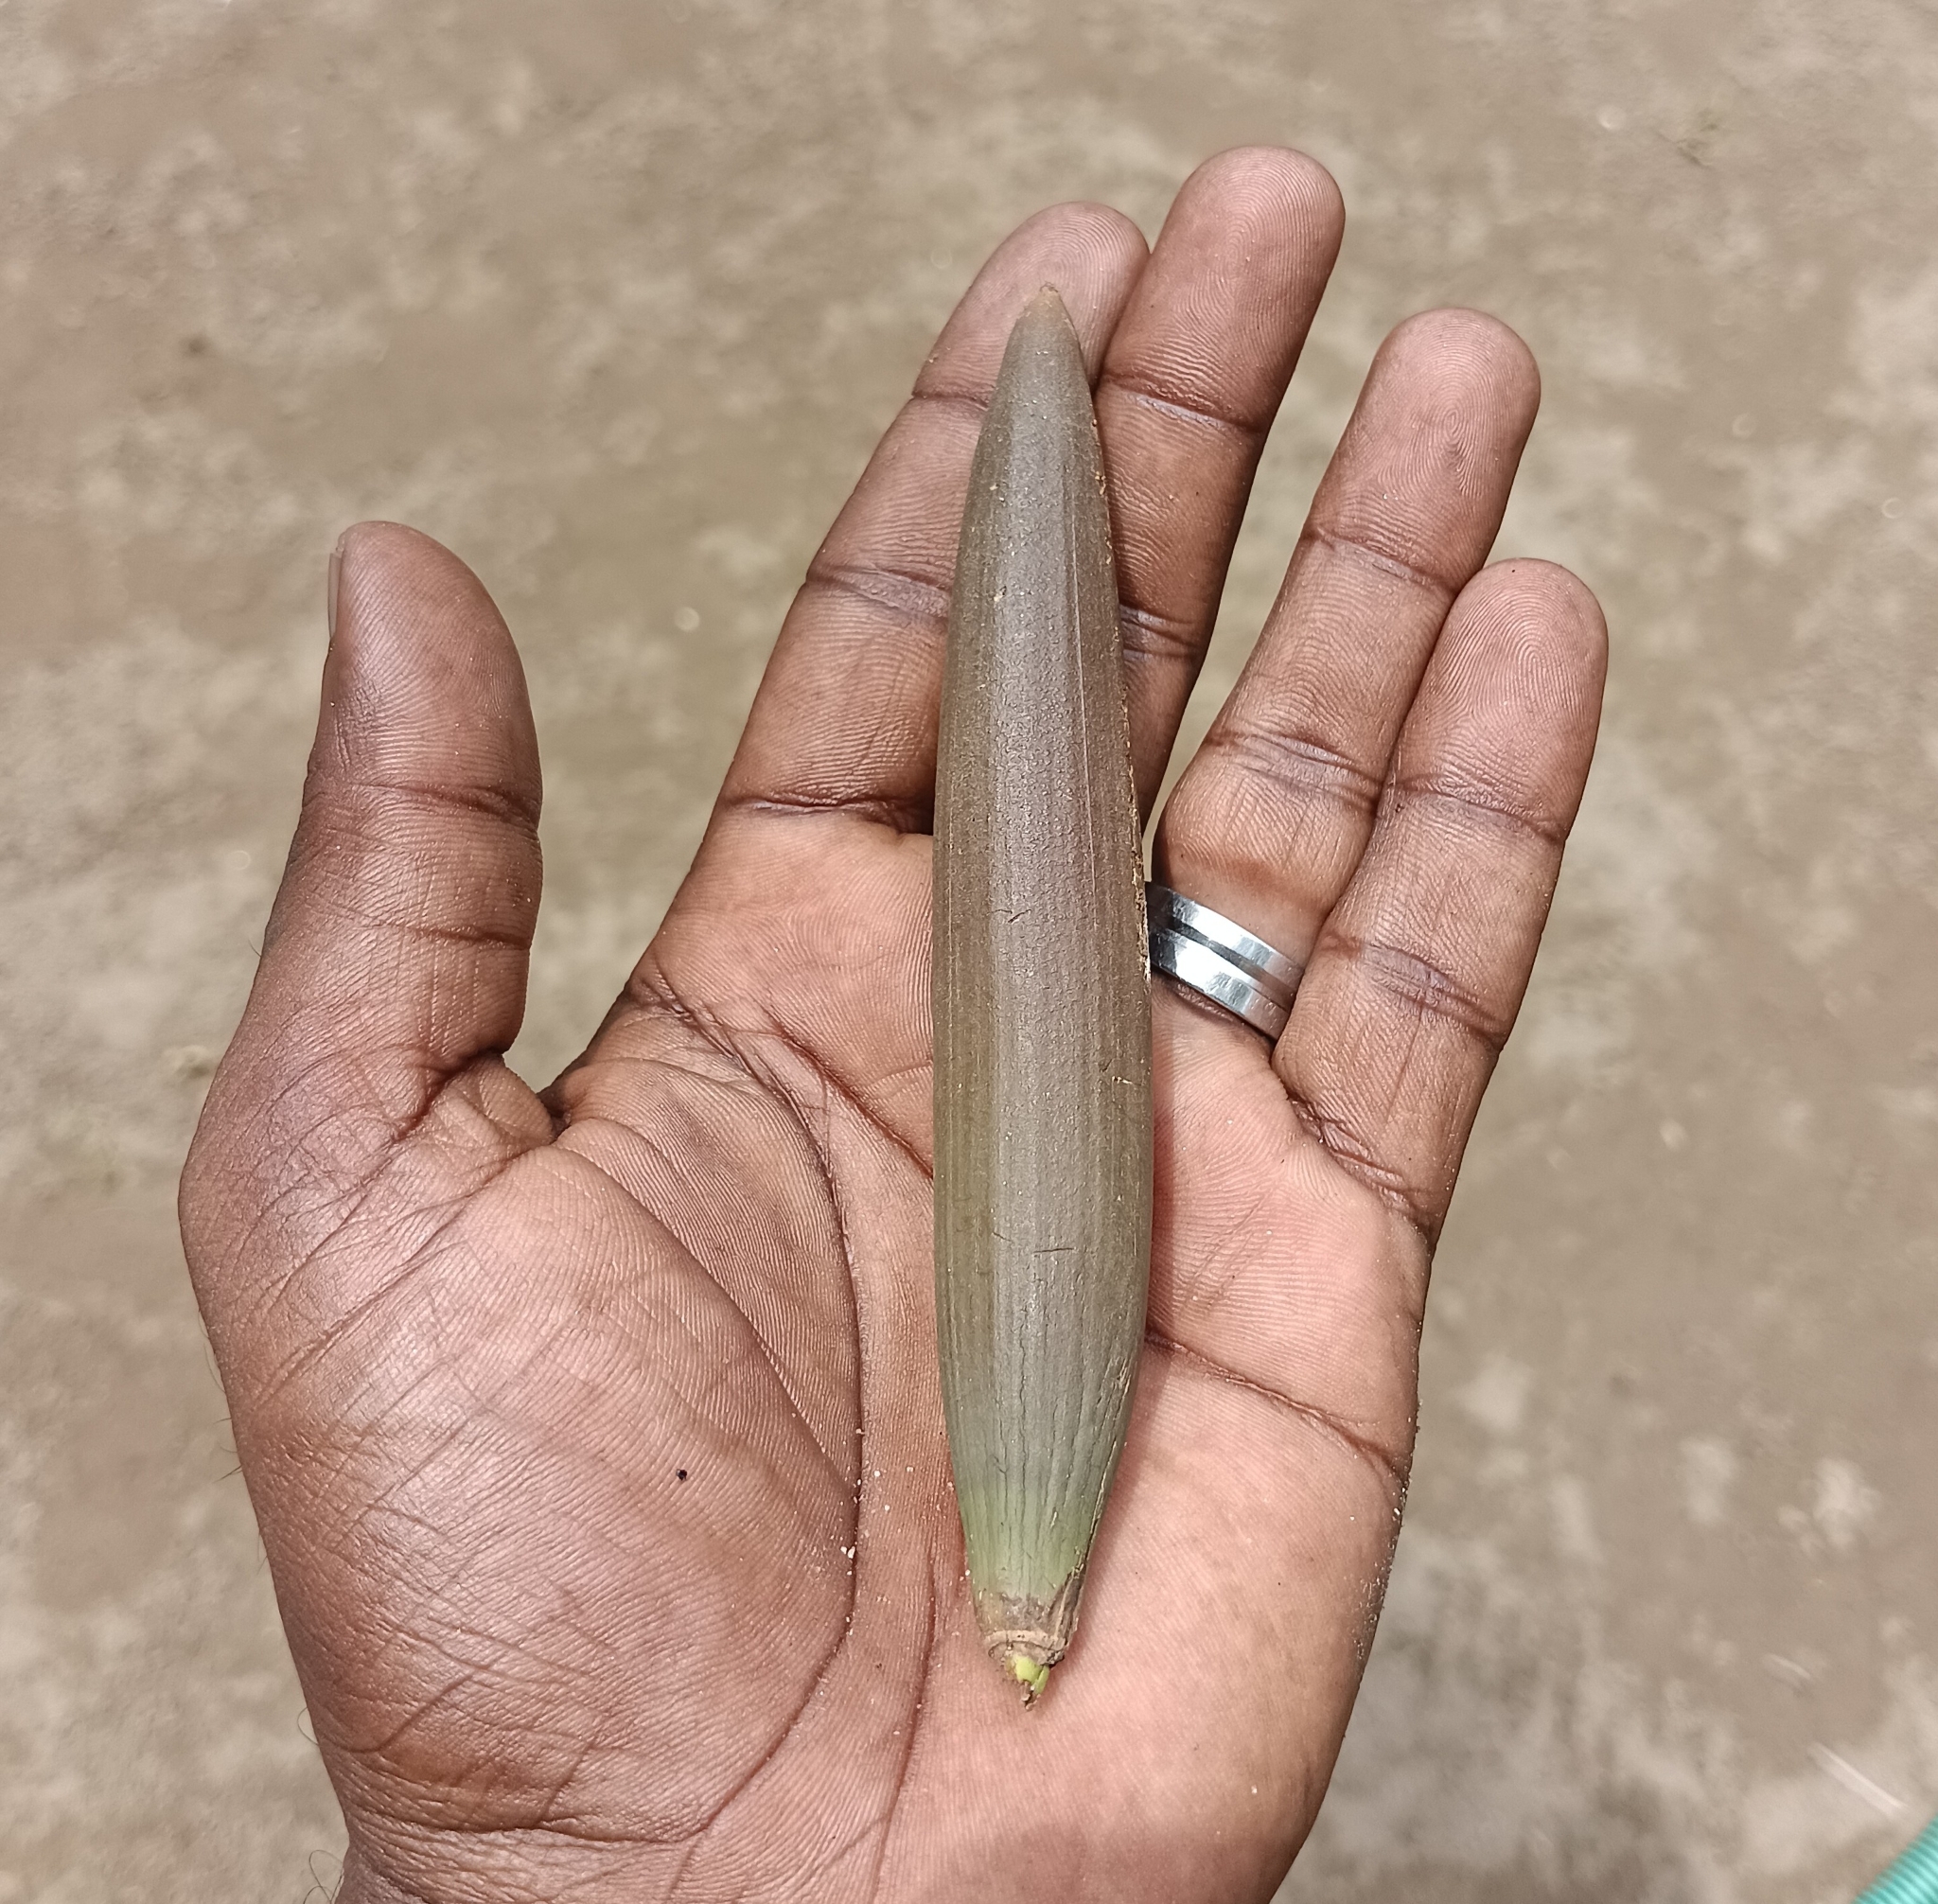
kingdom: Plantae
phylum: Tracheophyta
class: Magnoliopsida
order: Malpighiales
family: Rhizophoraceae
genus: Bruguiera
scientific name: Bruguiera gymnorhiza
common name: Oriental mangrove
